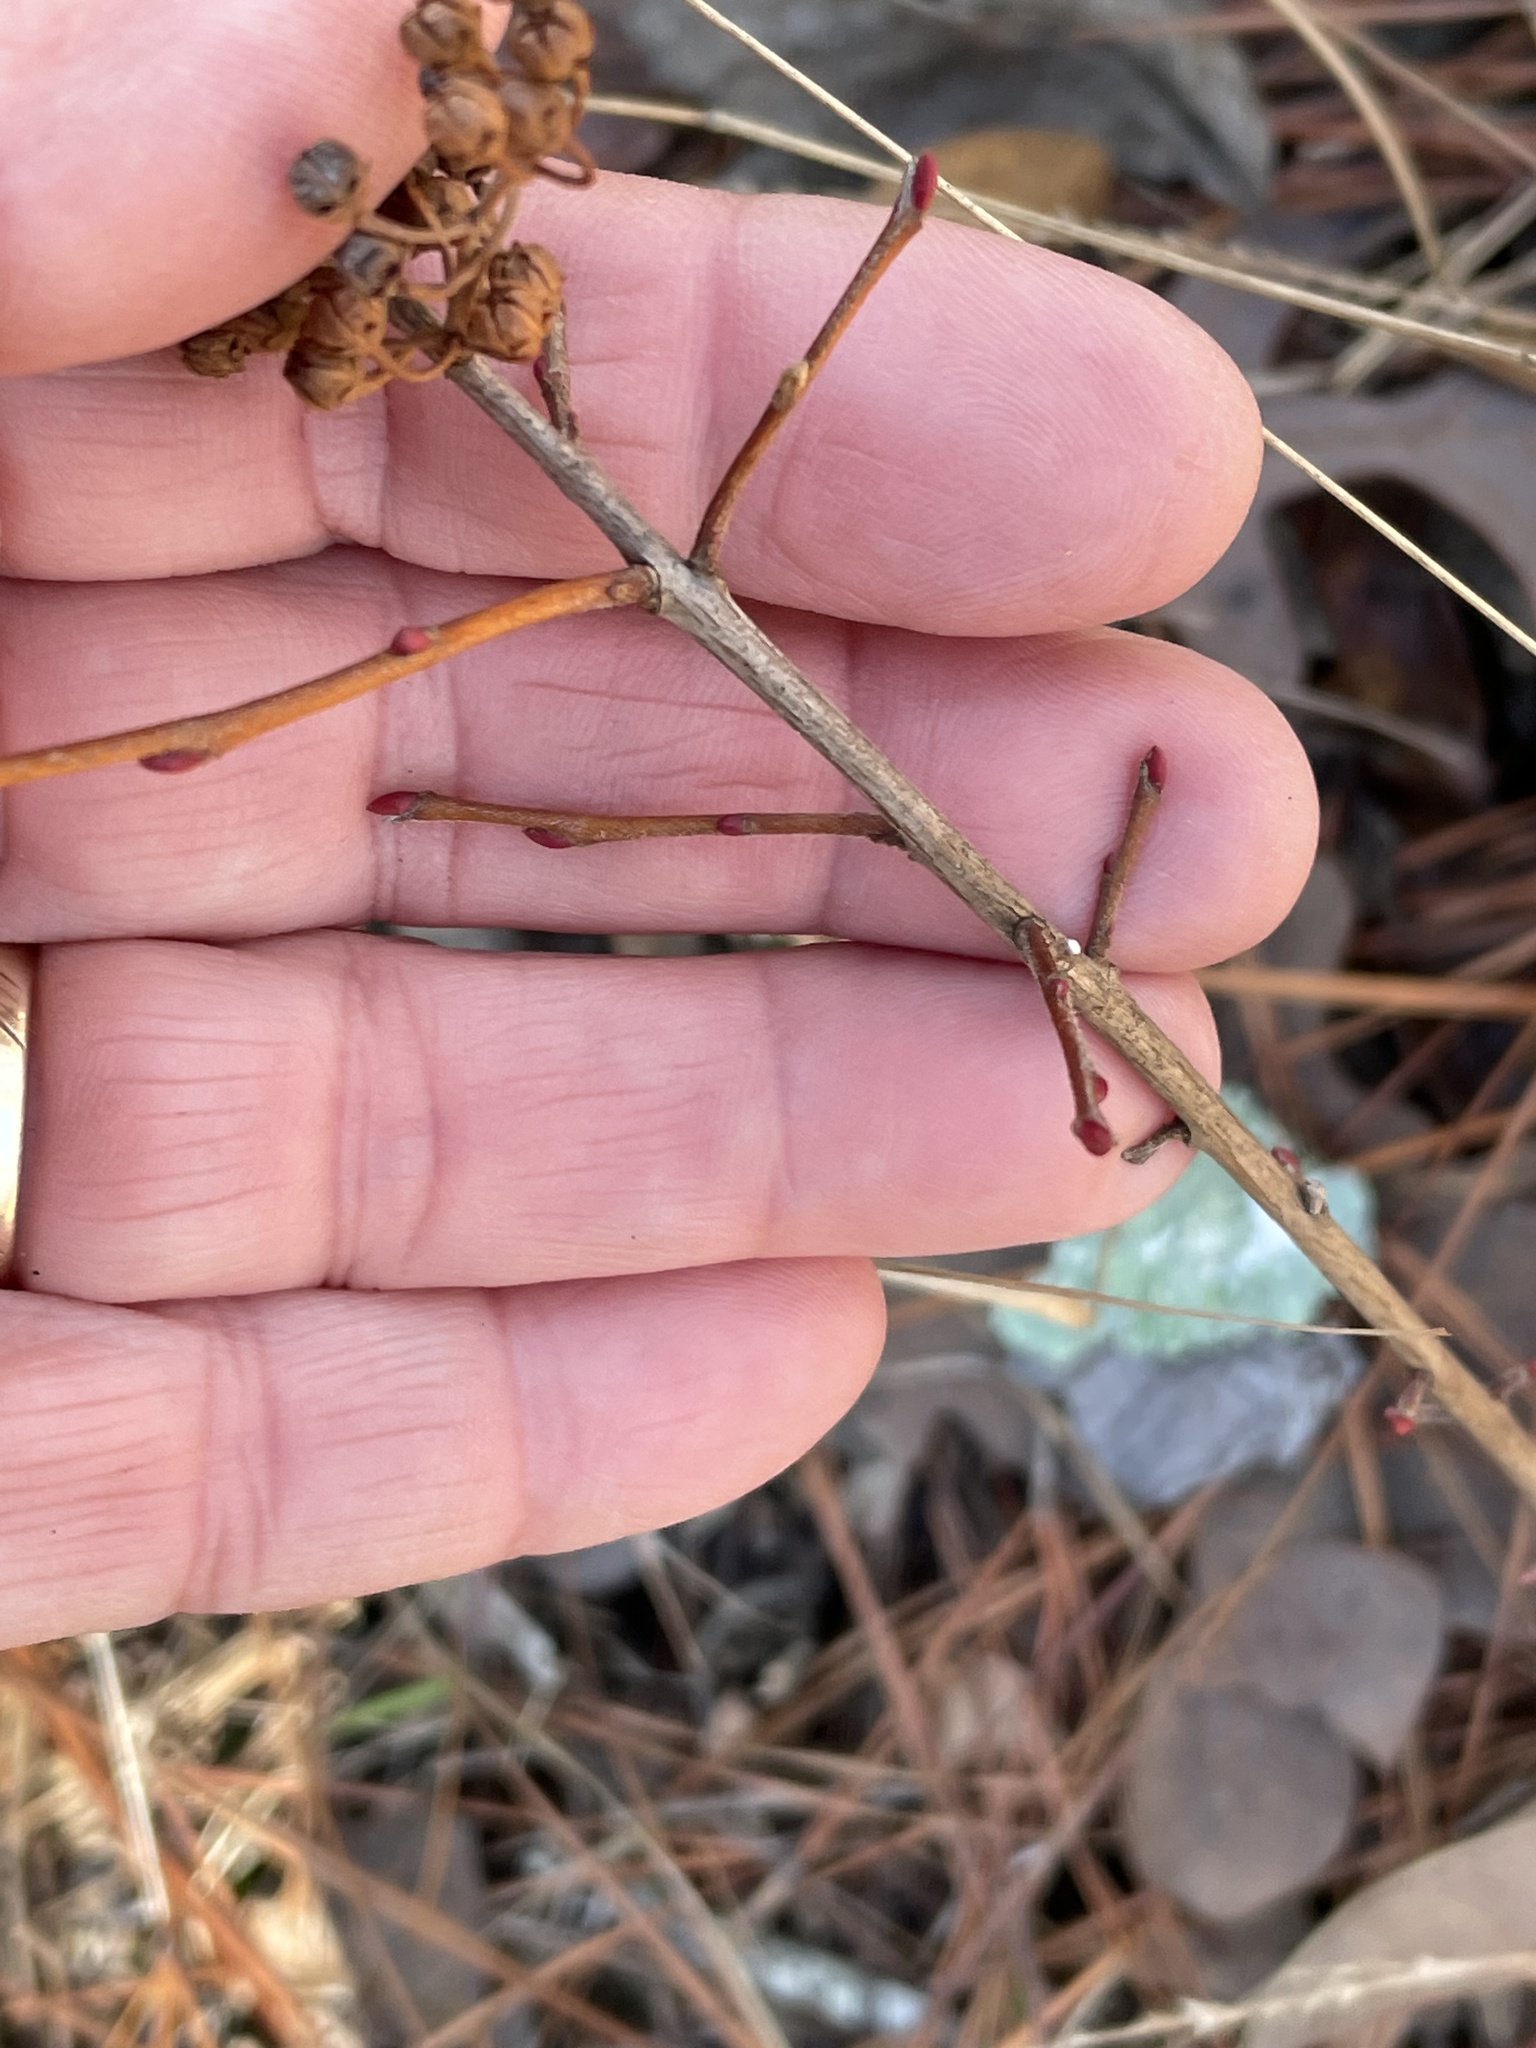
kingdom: Plantae
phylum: Tracheophyta
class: Magnoliopsida
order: Ericales
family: Ericaceae
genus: Lyonia
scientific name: Lyonia ligustrina
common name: Maleberry
